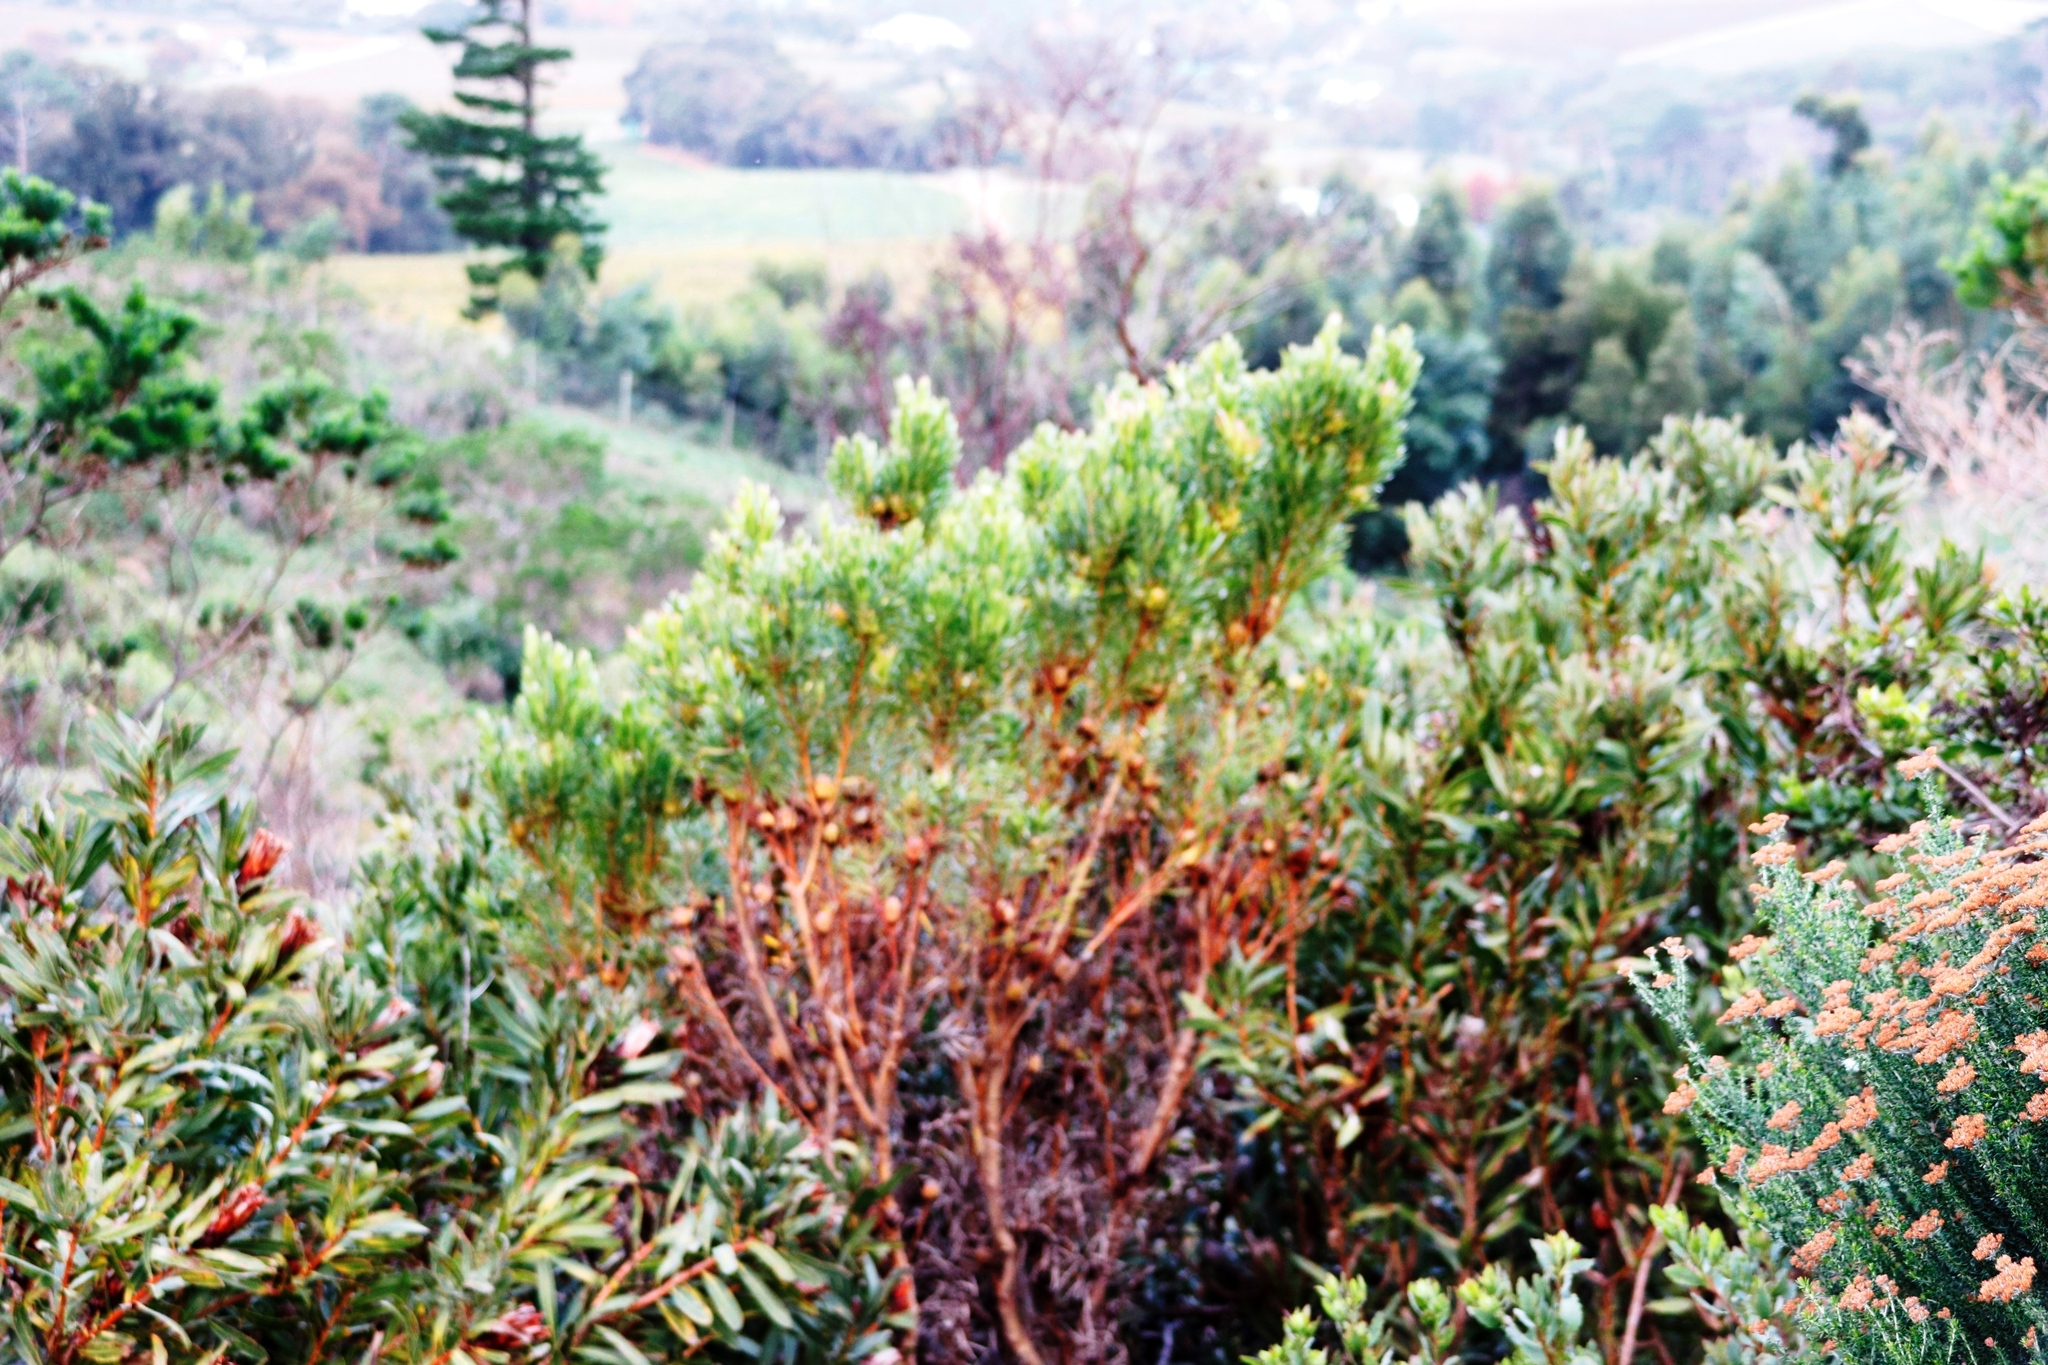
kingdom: Plantae
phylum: Tracheophyta
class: Magnoliopsida
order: Proteales
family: Proteaceae
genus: Leucadendron
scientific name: Leucadendron xanthoconus
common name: Sickle-leaf conebush
